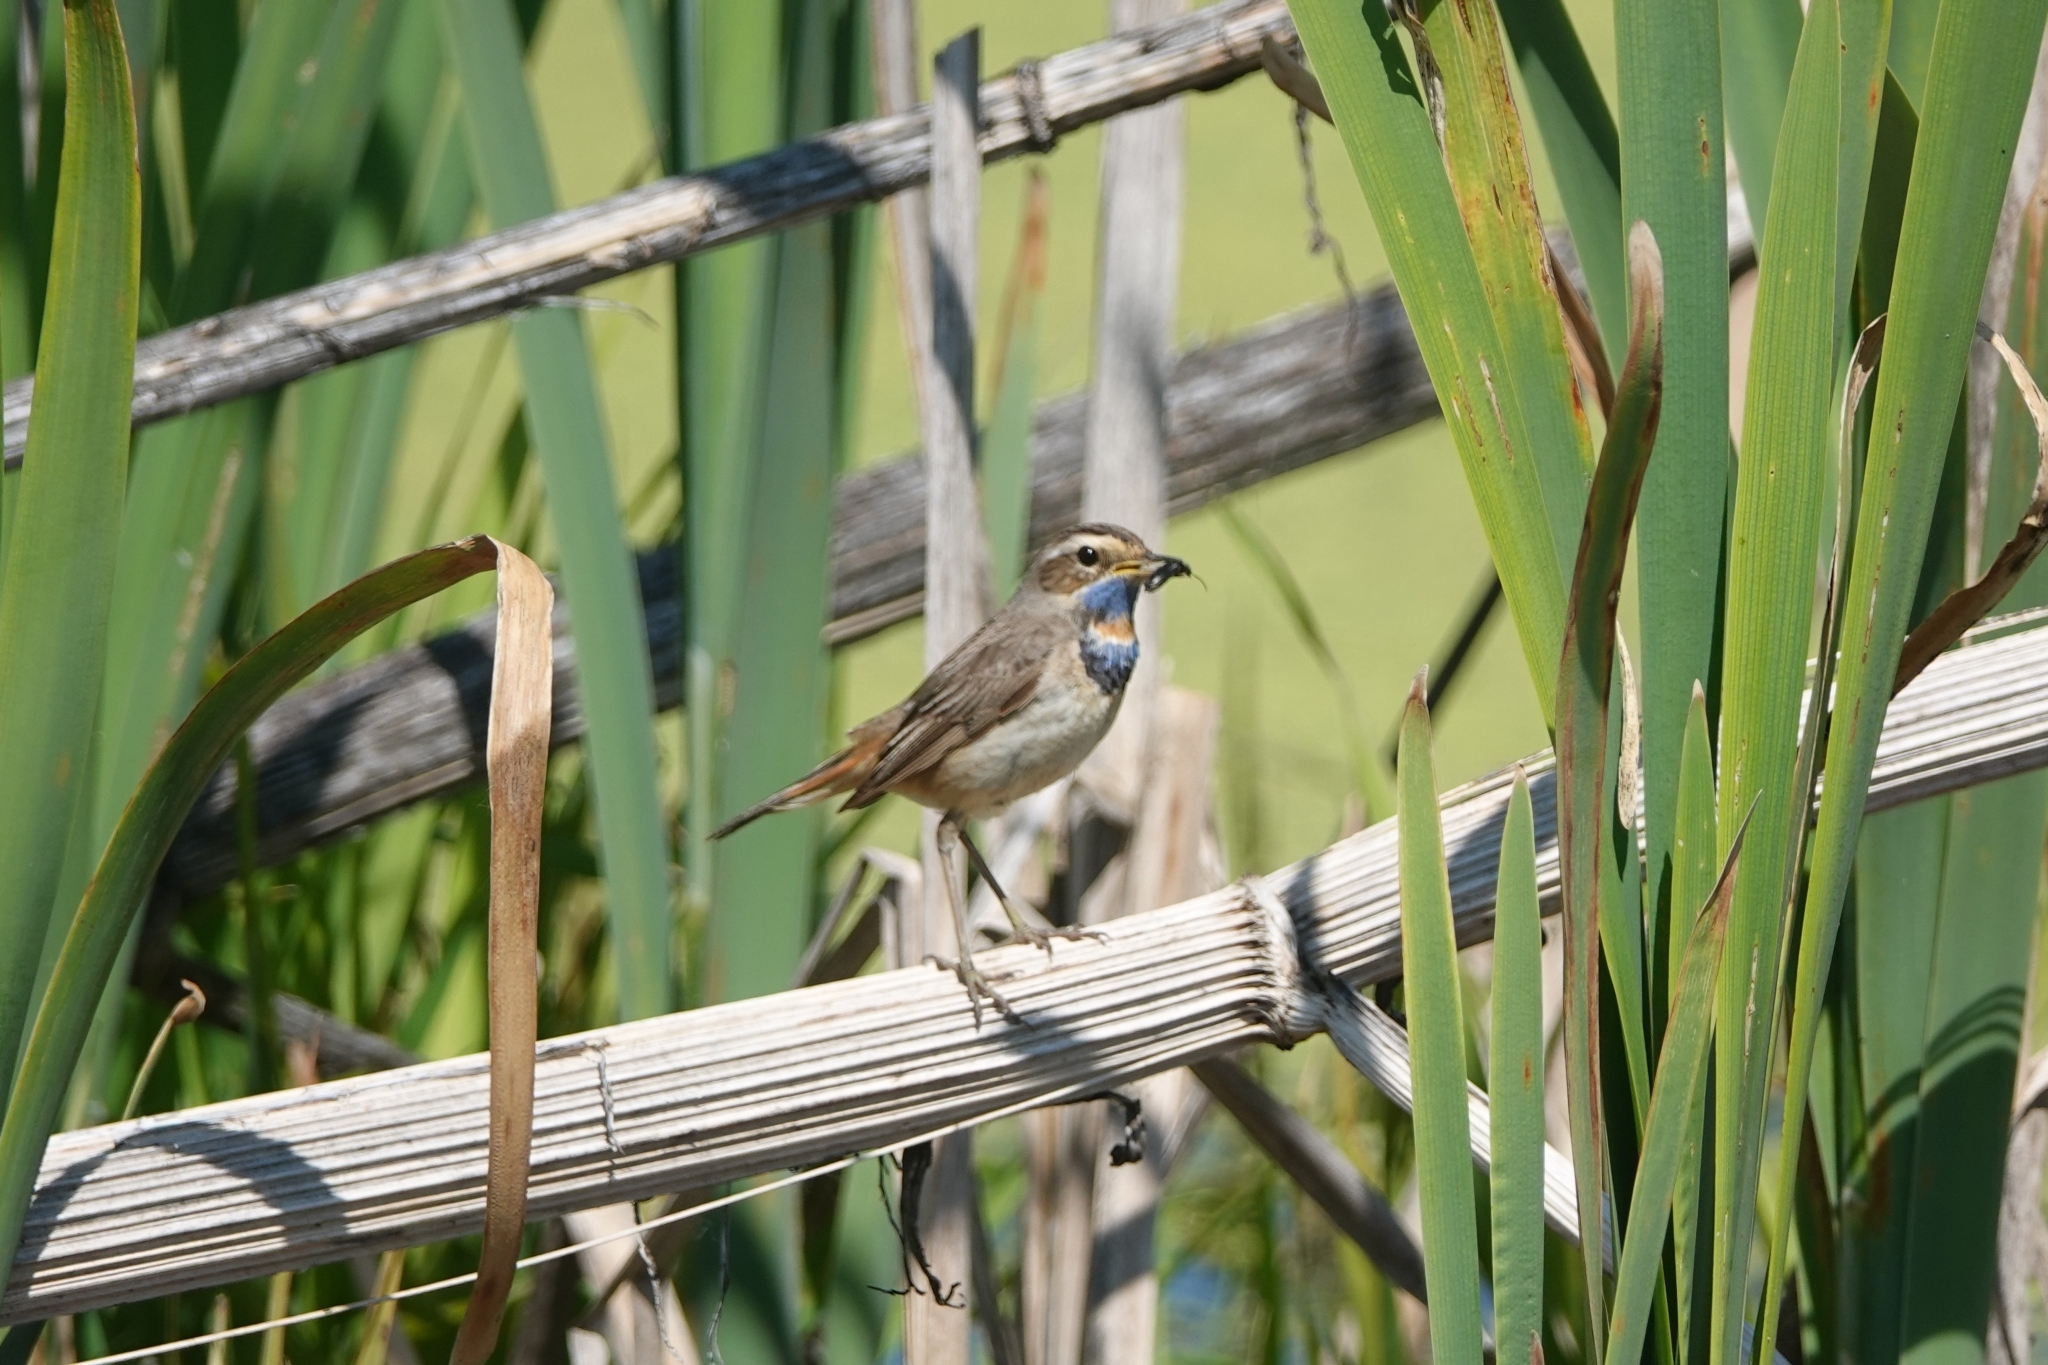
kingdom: Animalia
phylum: Chordata
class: Aves
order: Passeriformes
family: Muscicapidae
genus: Luscinia
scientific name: Luscinia svecica
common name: Bluethroat
